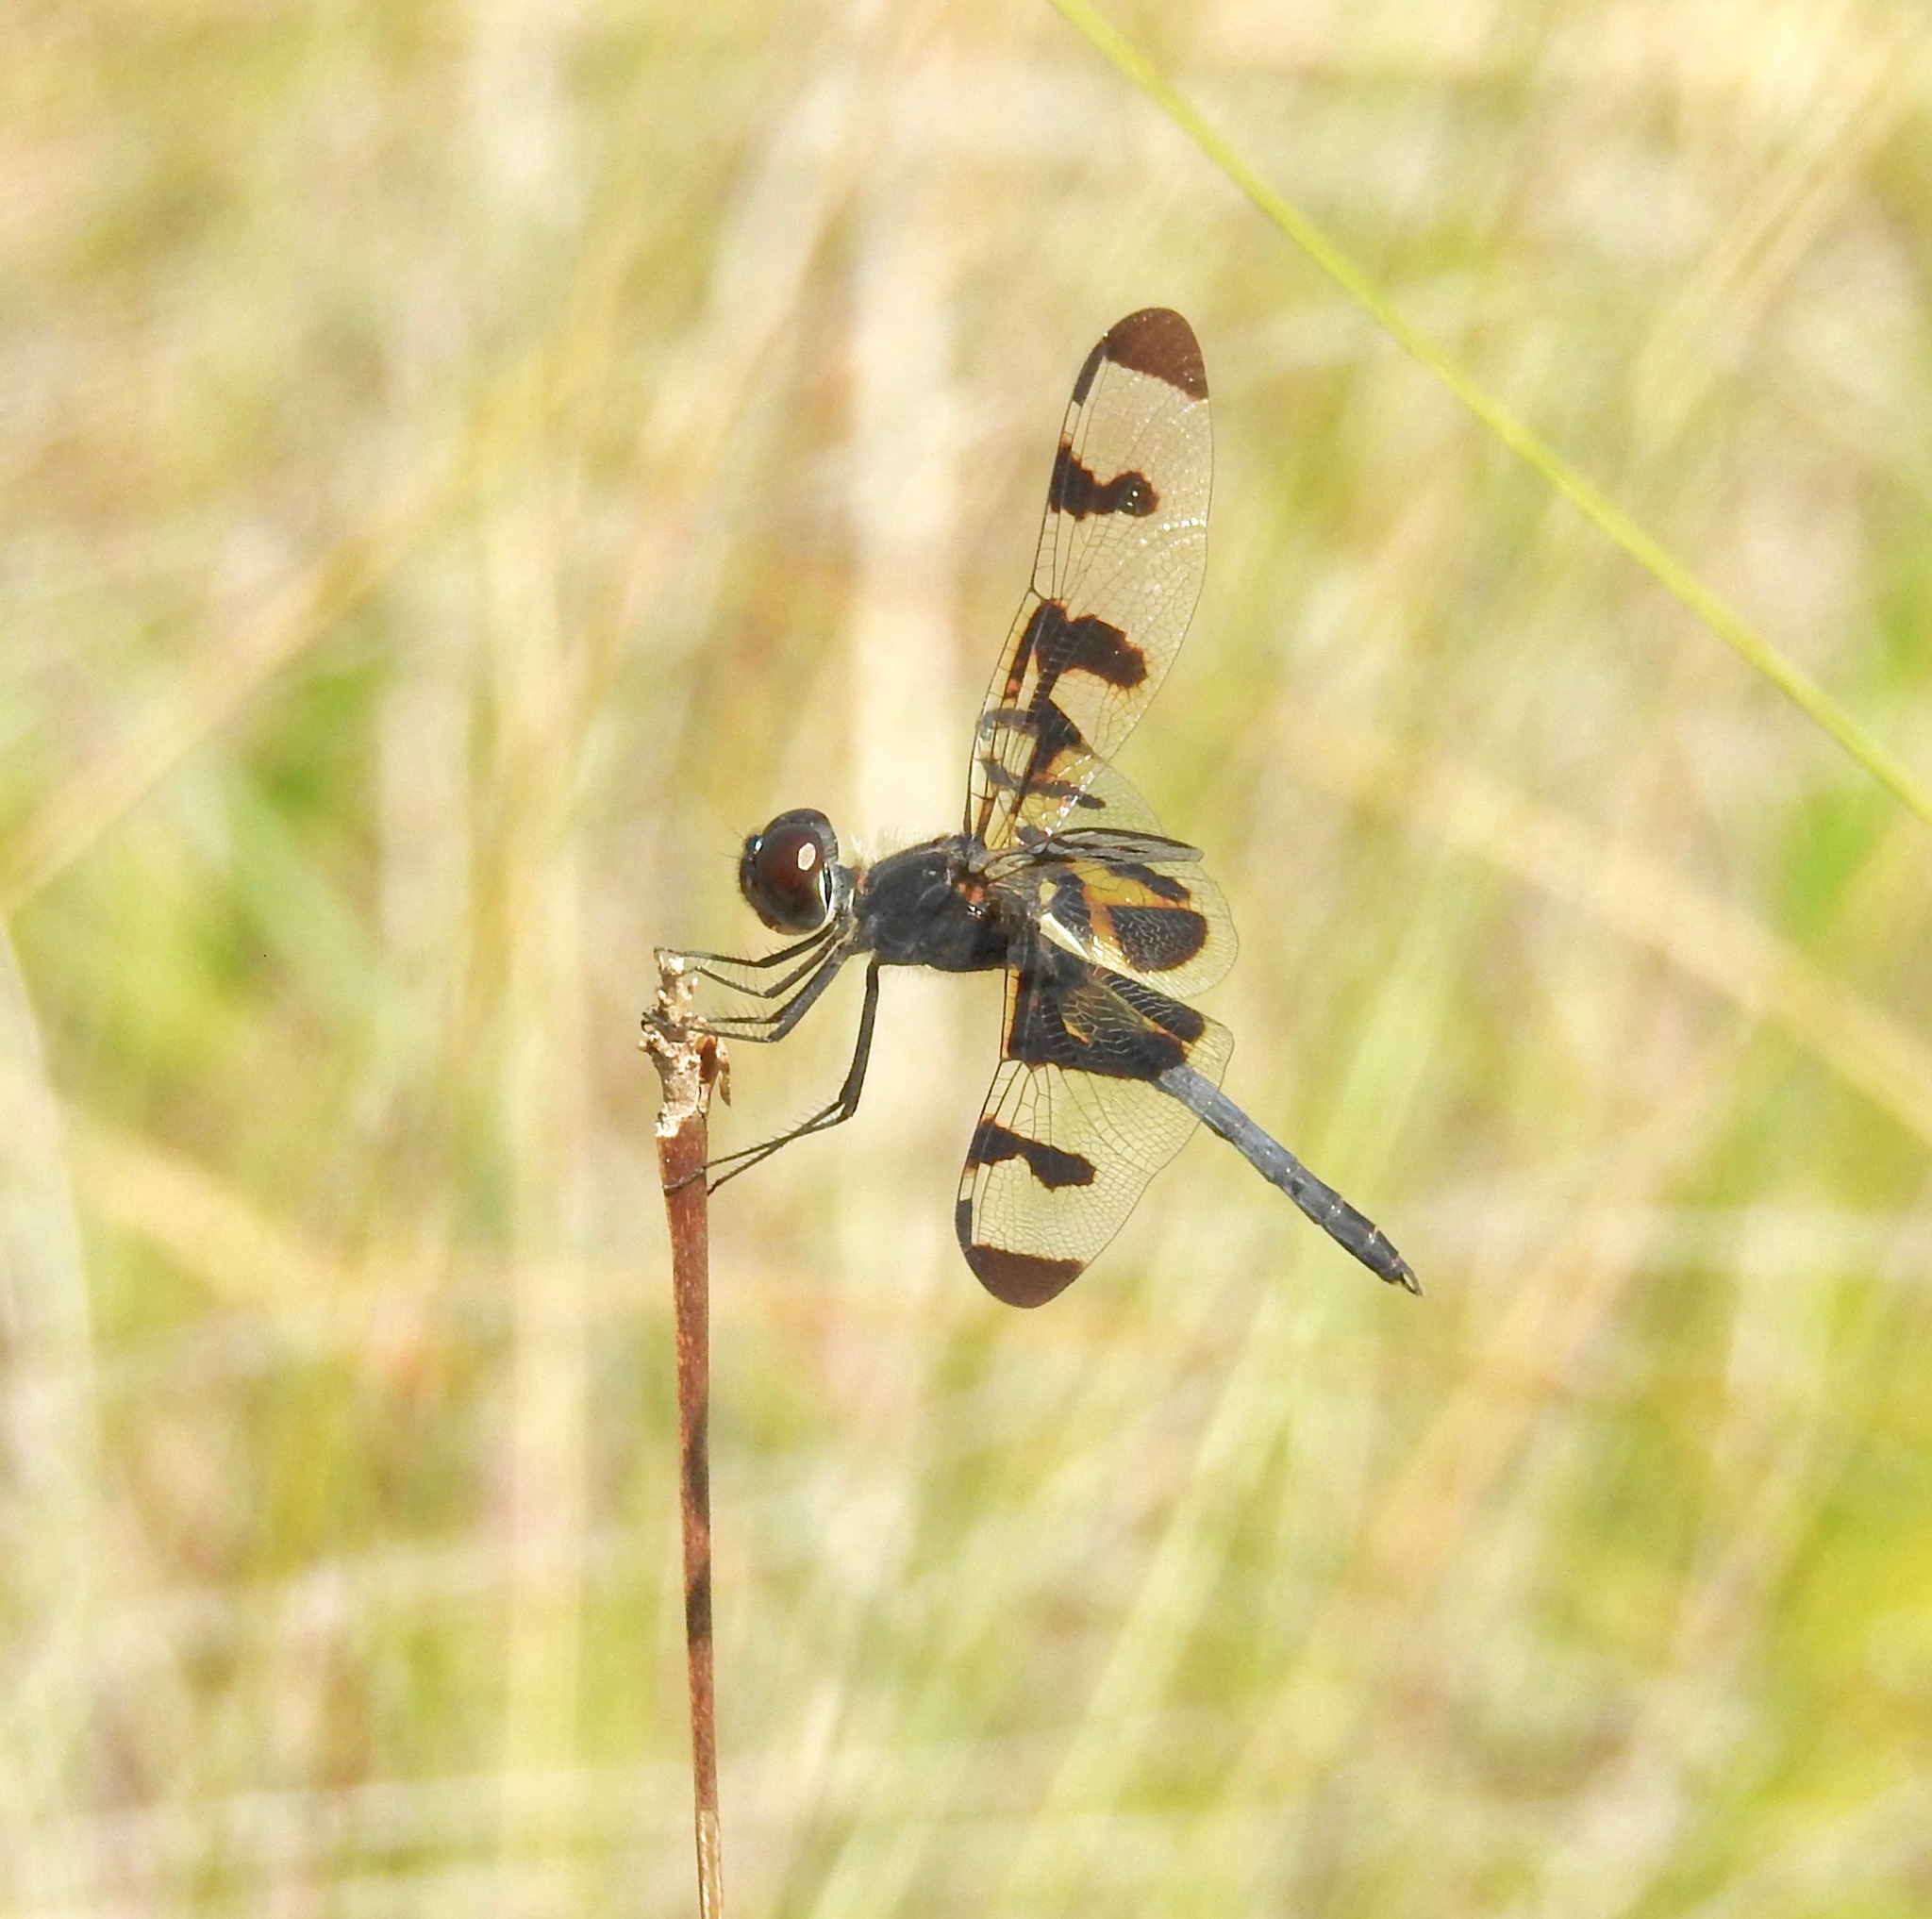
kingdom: Animalia
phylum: Arthropoda
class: Insecta
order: Odonata
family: Libellulidae
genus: Celithemis
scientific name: Celithemis fasciata
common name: Banded pennant
